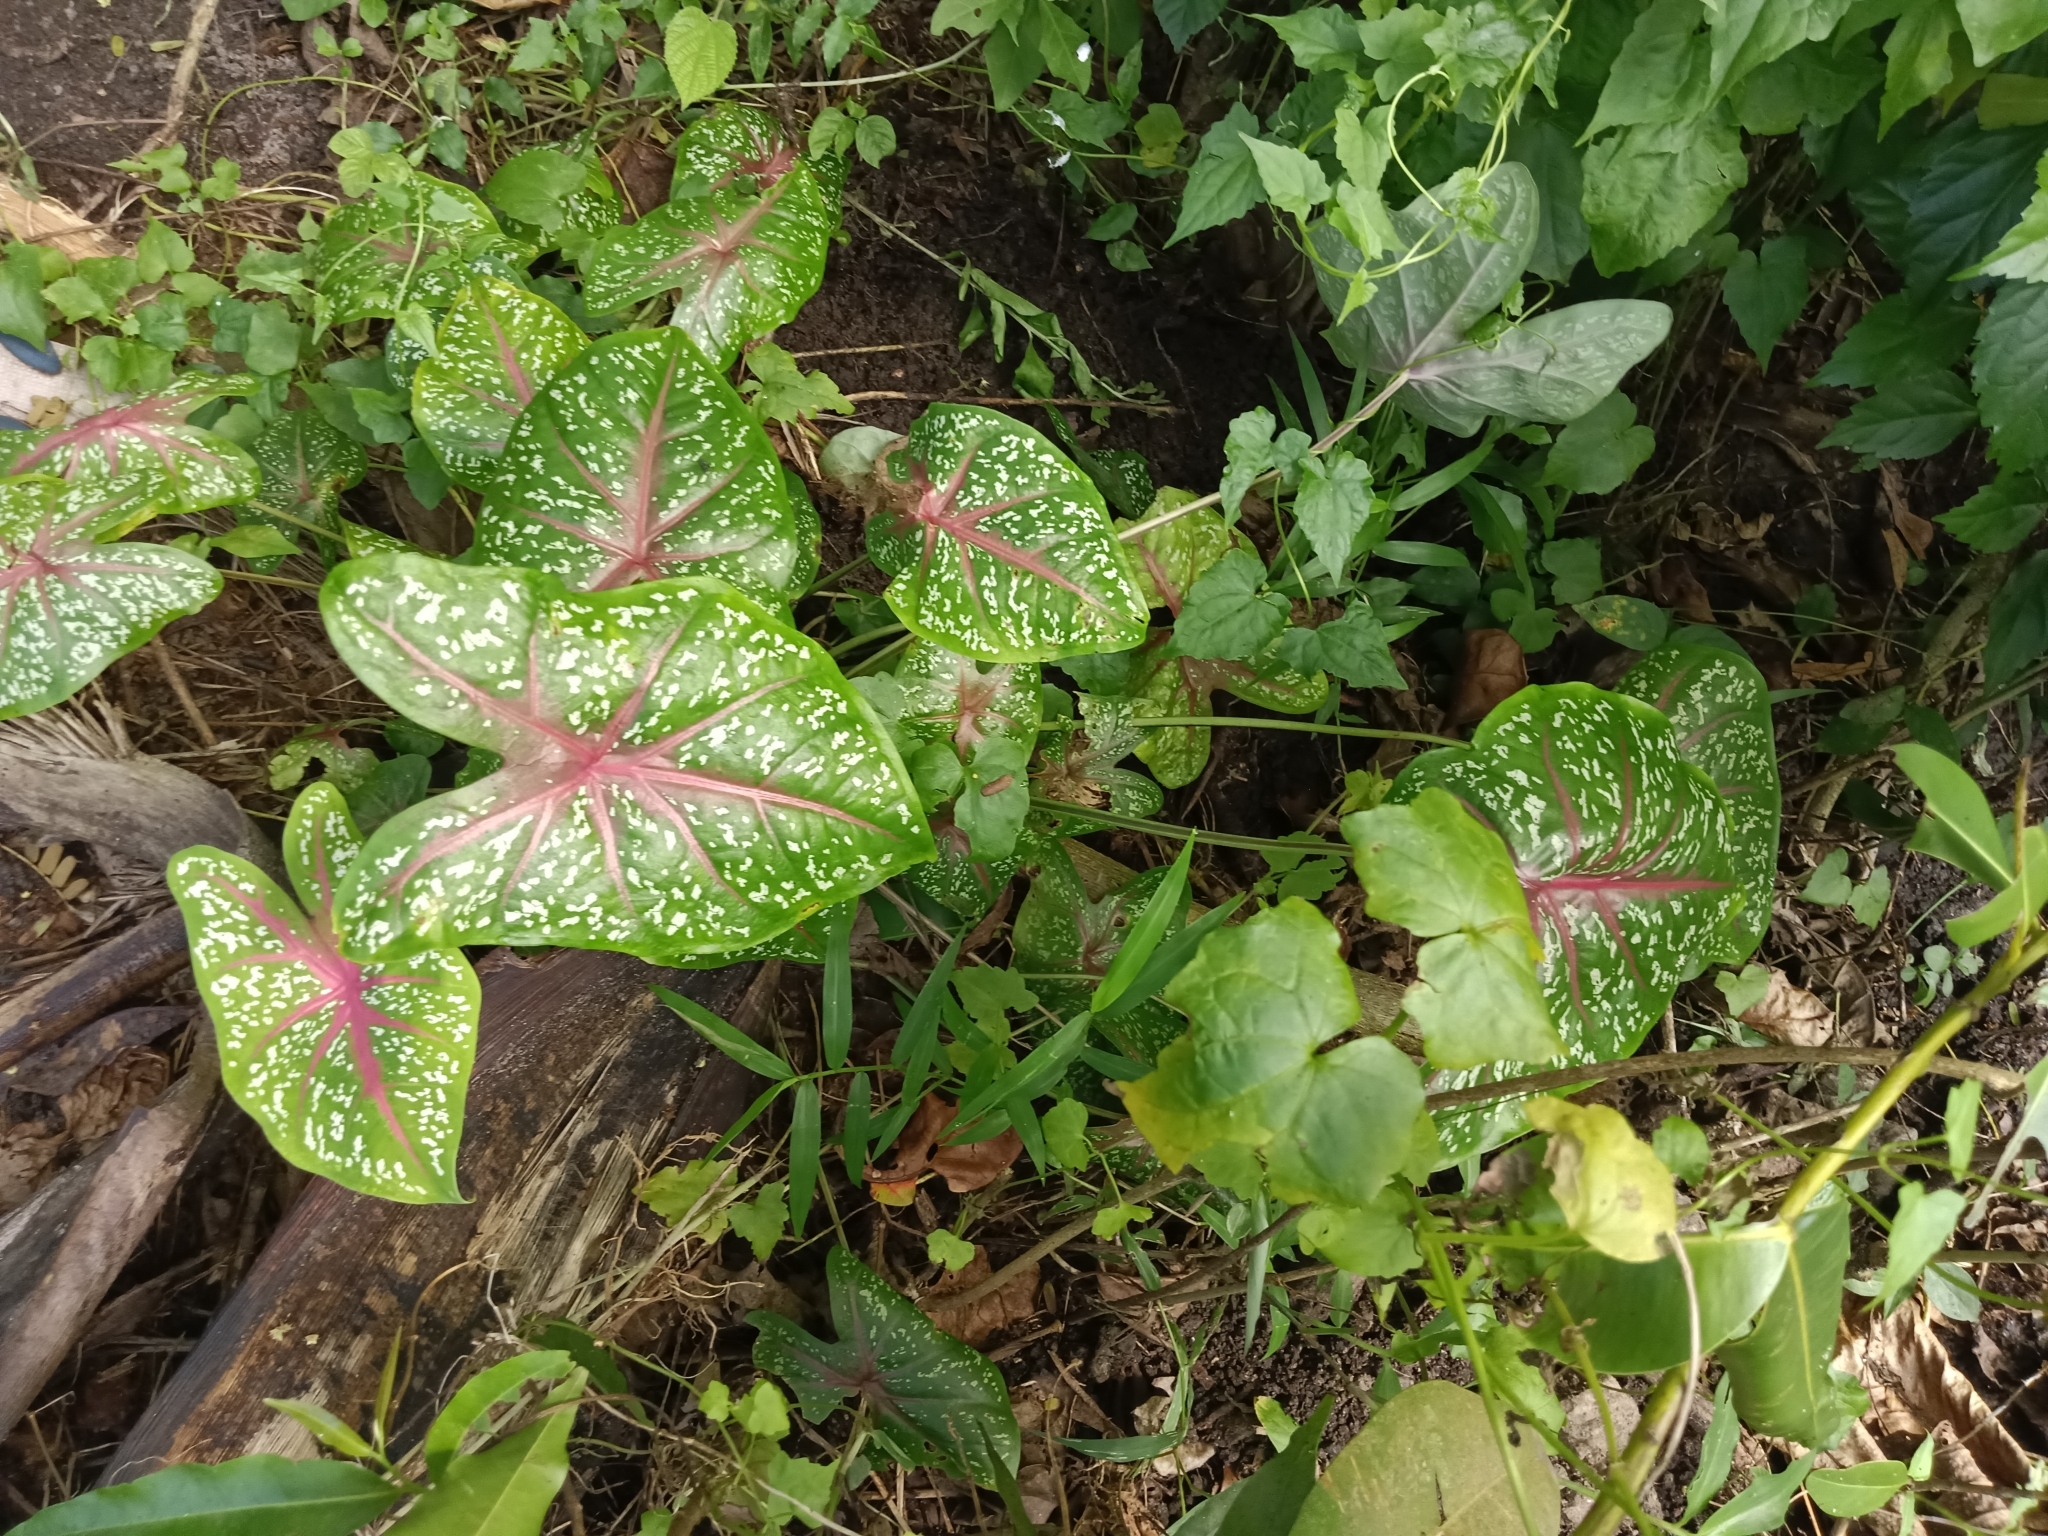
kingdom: Plantae
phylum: Tracheophyta
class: Liliopsida
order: Alismatales
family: Araceae
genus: Caladium
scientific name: Caladium bicolor
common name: Artist's pallet
